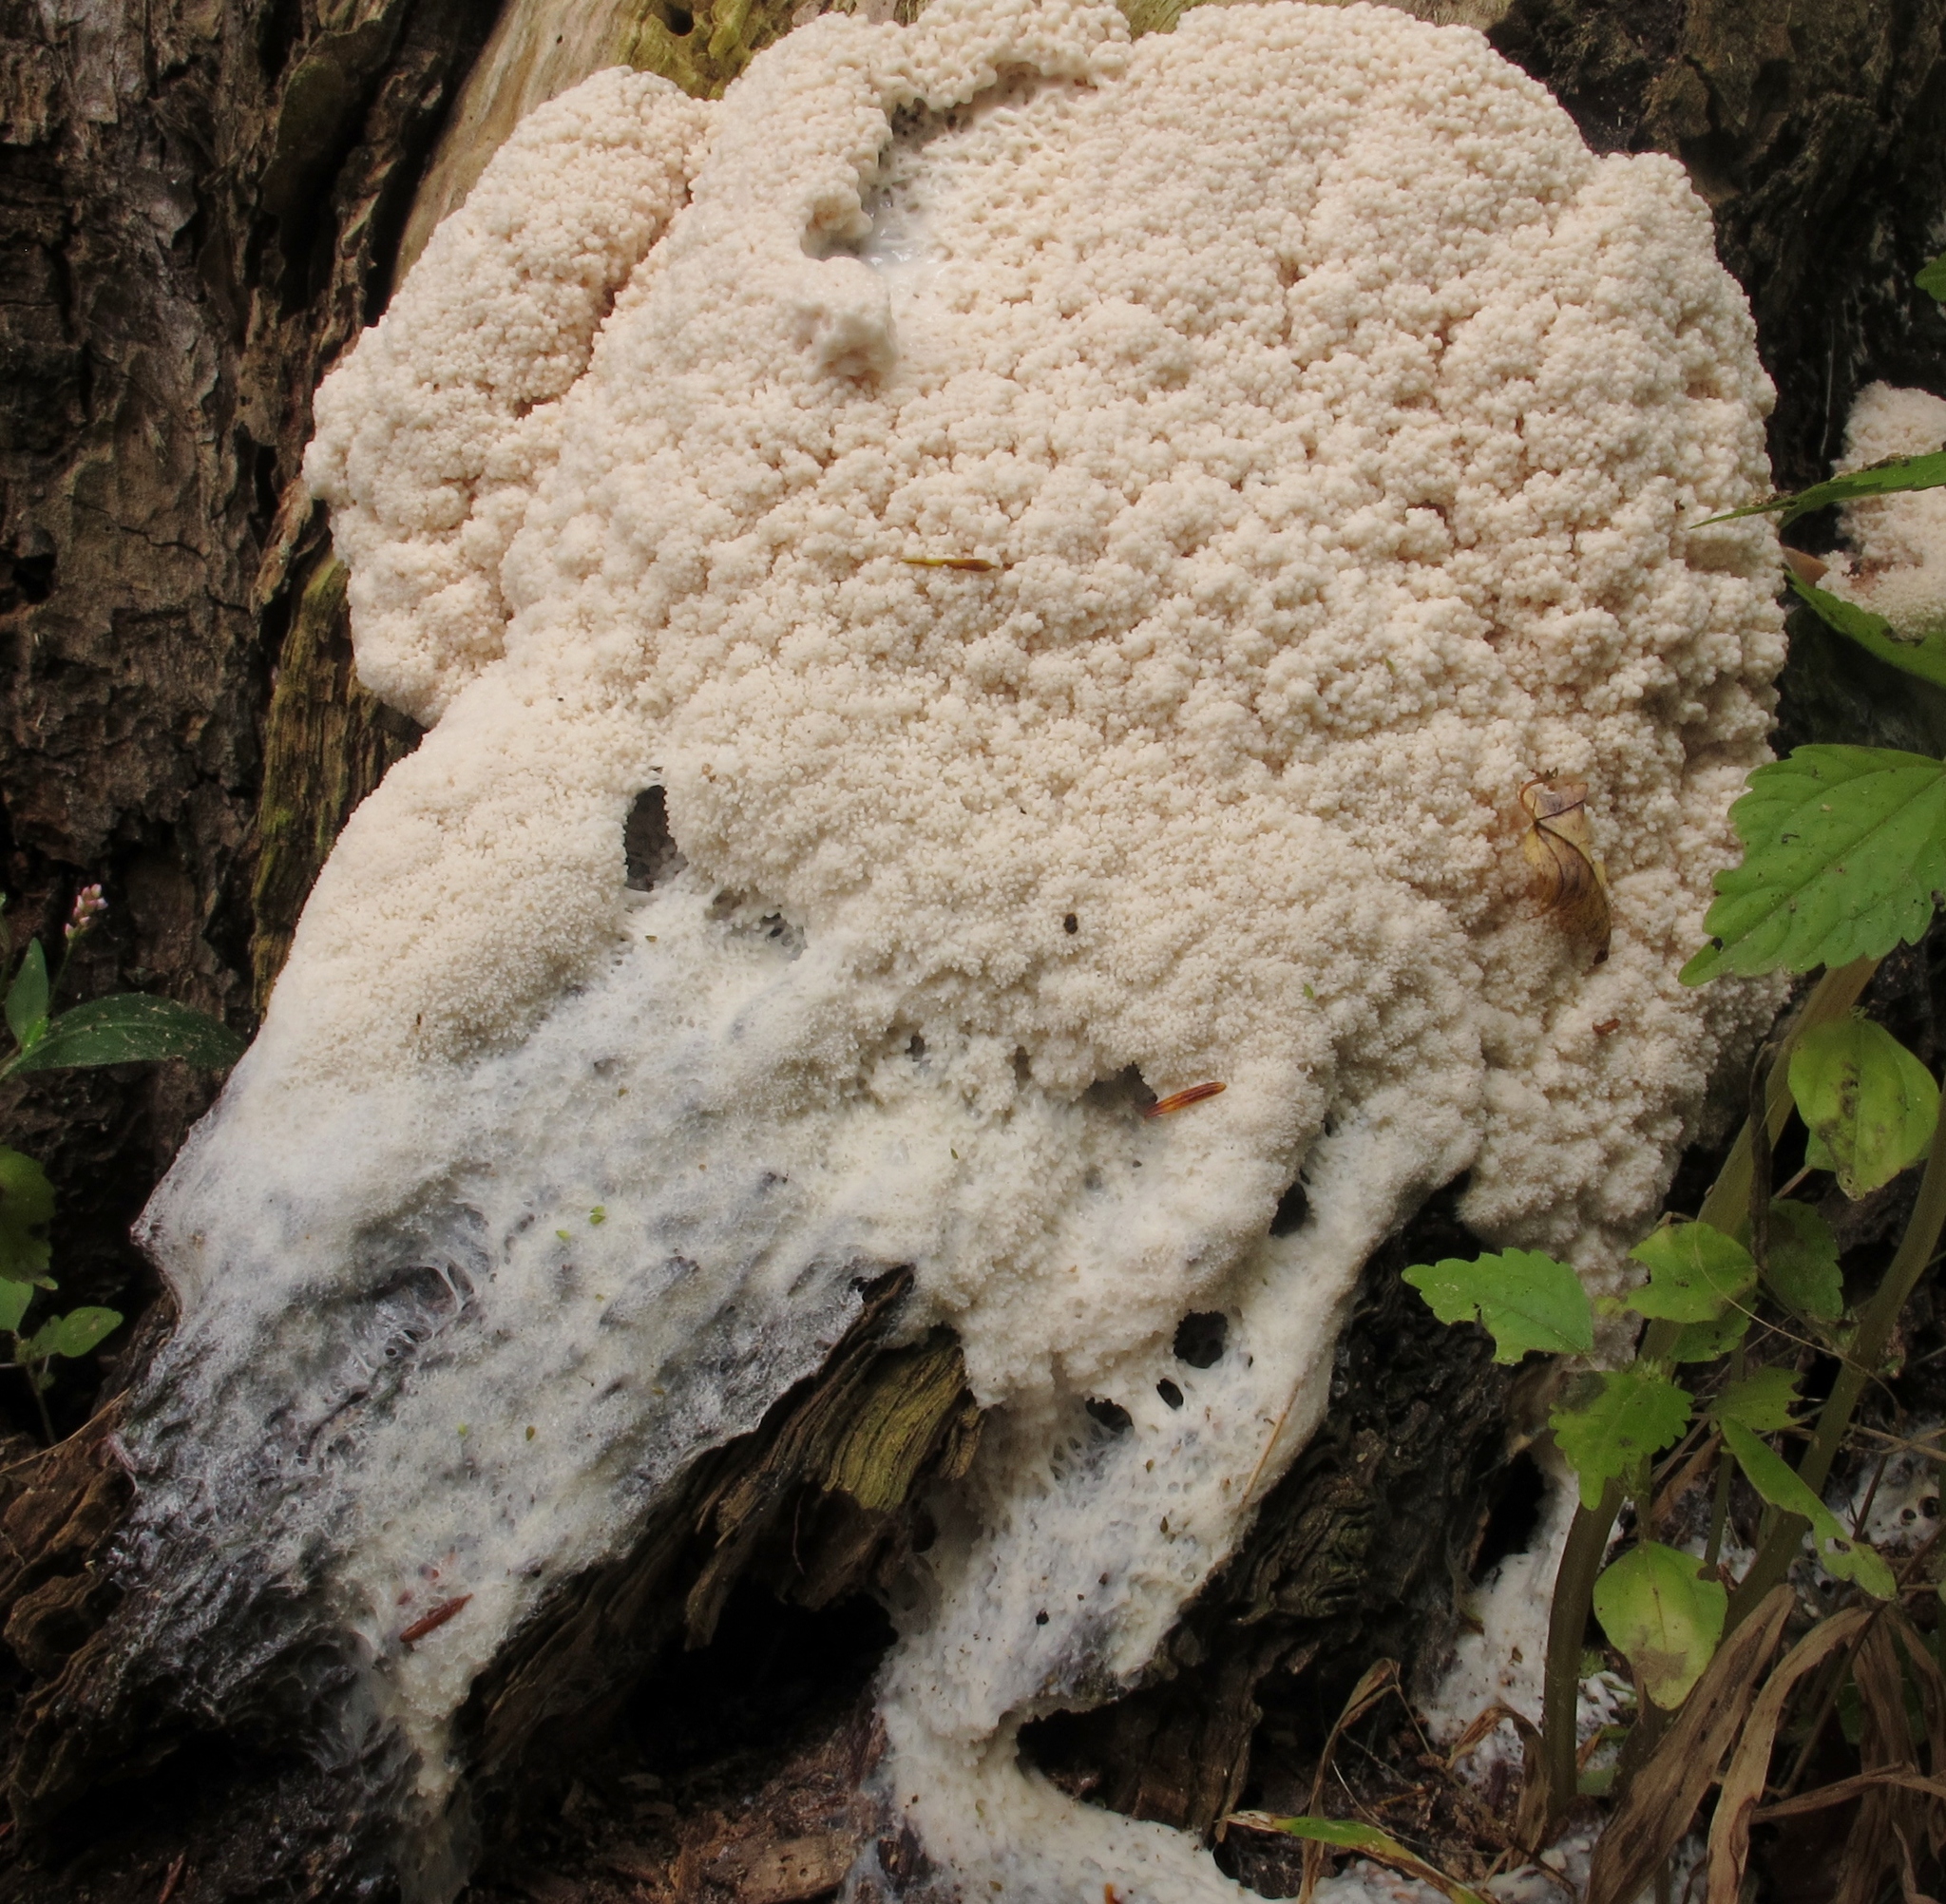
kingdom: Protozoa
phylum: Mycetozoa
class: Myxomycetes
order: Stemonitidales
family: Stemonitidaceae
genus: Brefeldia
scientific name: Brefeldia maxima
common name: Tapioca slime mold
